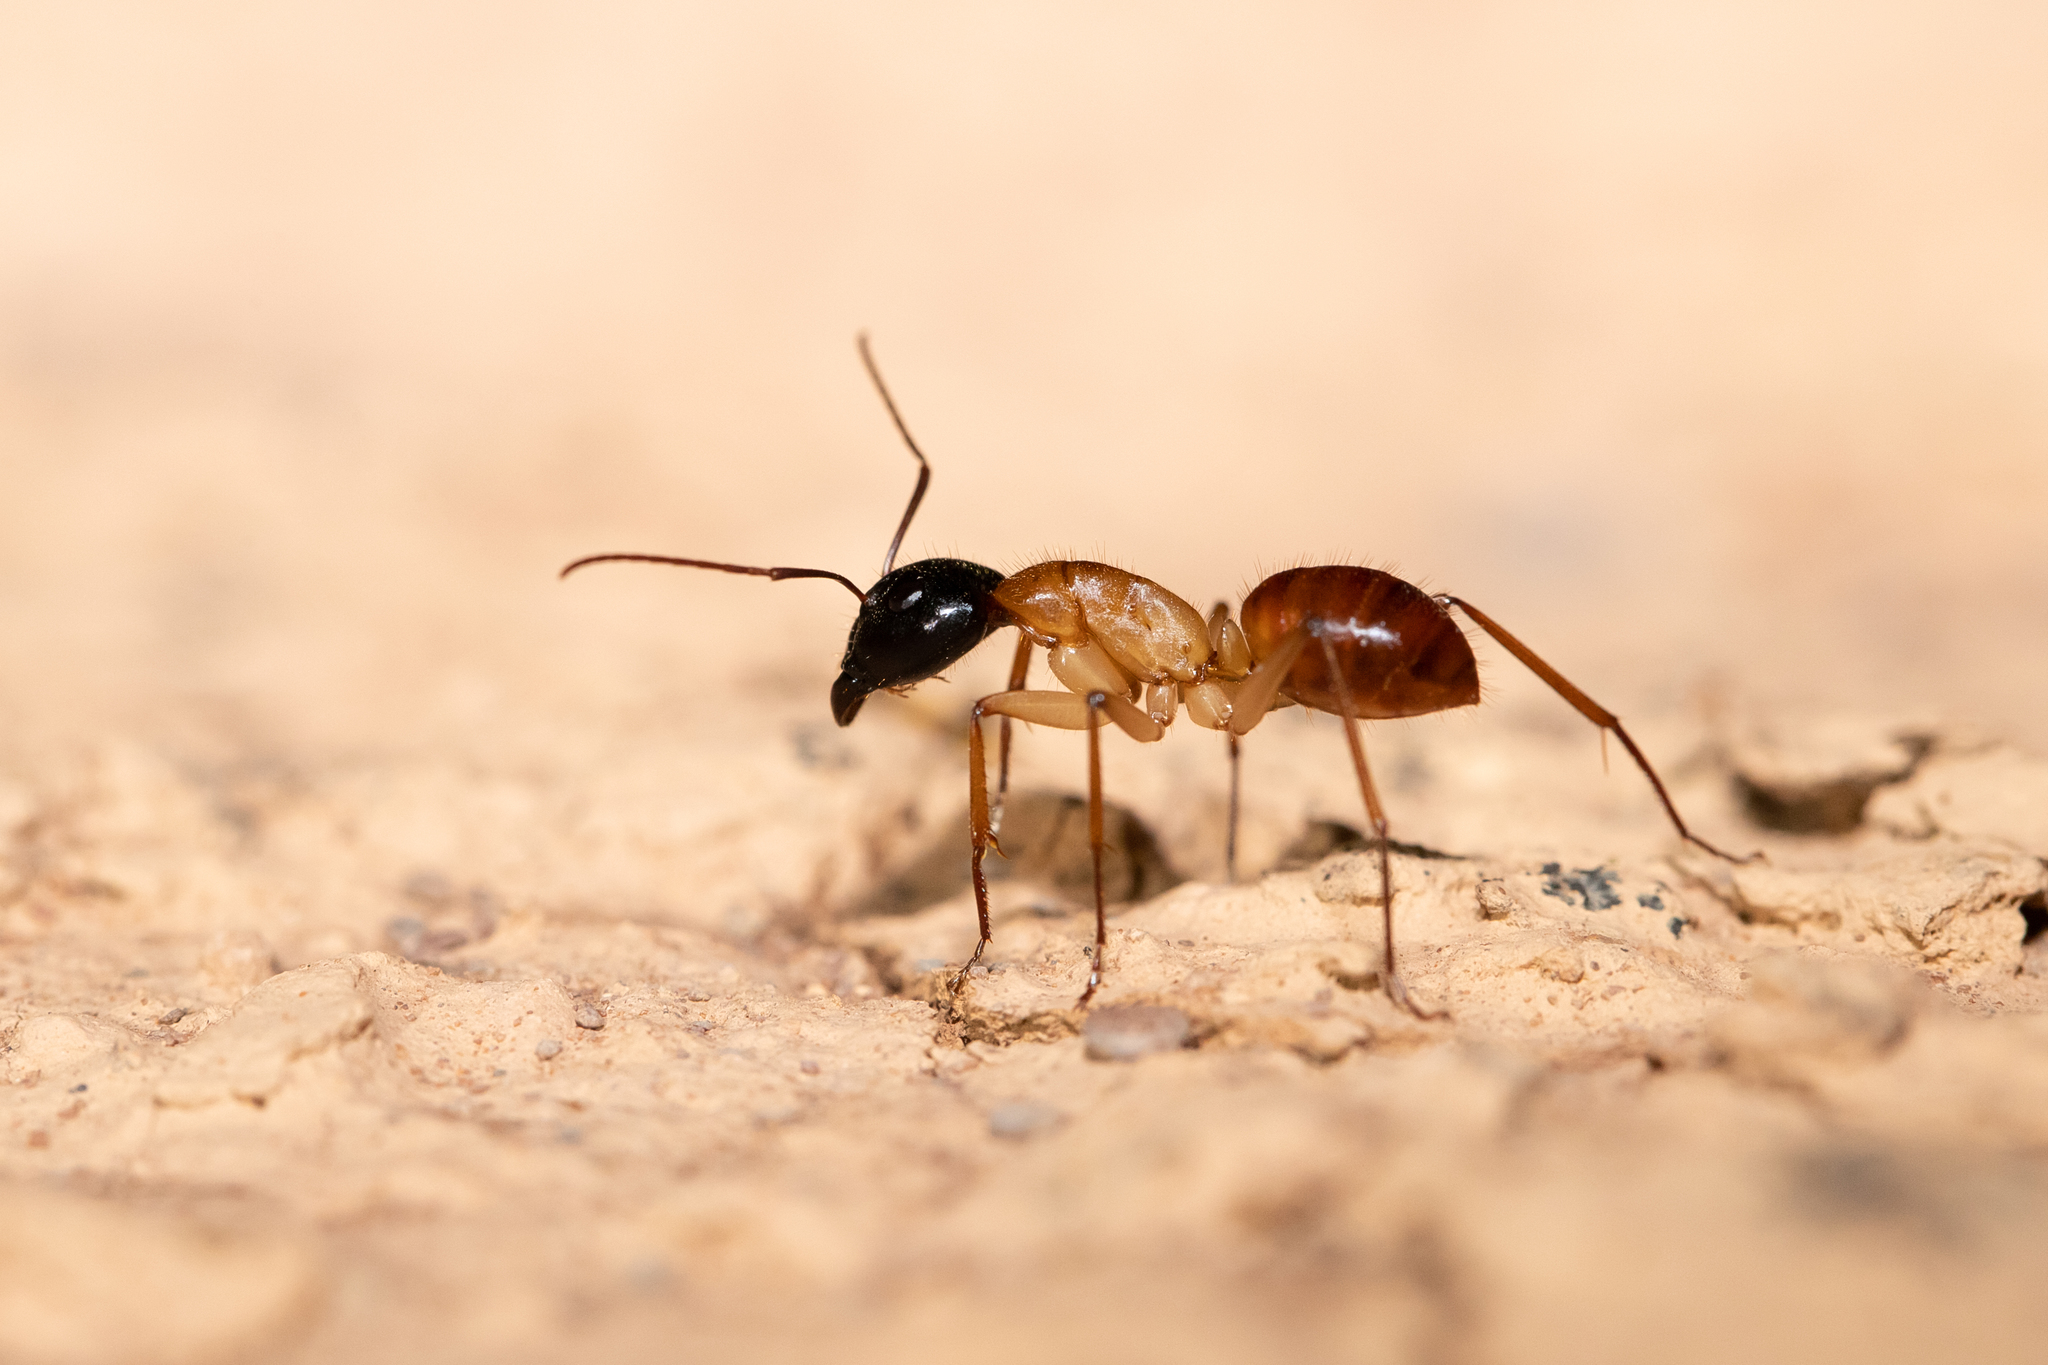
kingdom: Animalia
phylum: Arthropoda
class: Insecta
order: Hymenoptera
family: Formicidae
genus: Camponotus
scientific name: Camponotus nigriceps
